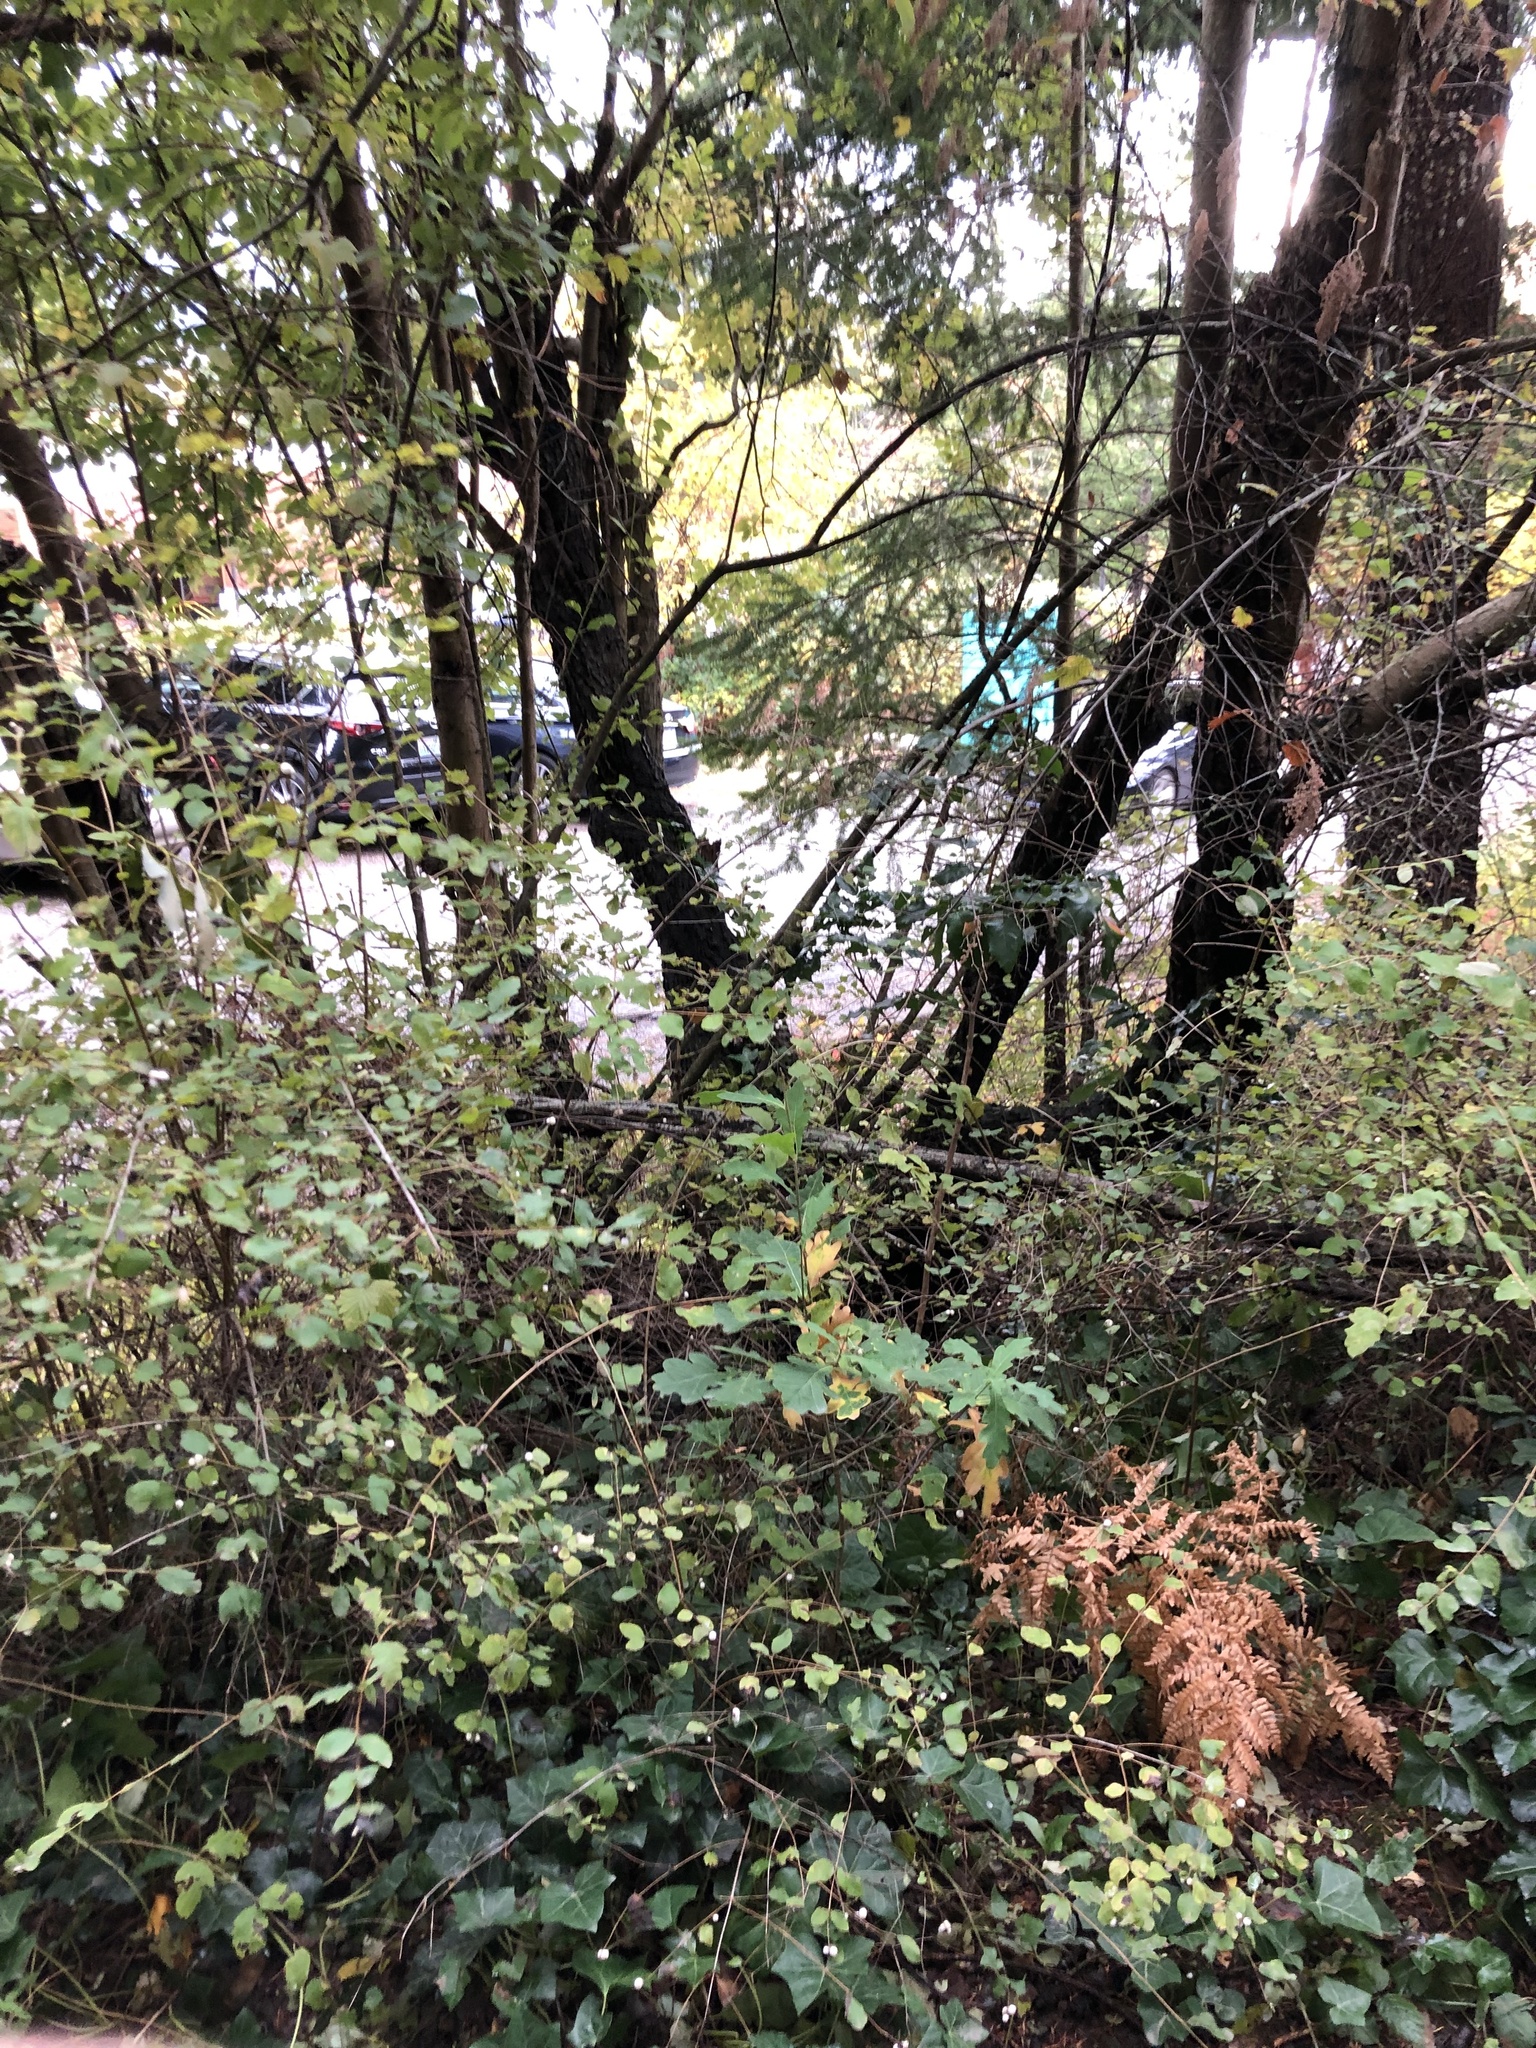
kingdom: Plantae
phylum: Tracheophyta
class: Magnoliopsida
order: Fagales
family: Fagaceae
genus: Quercus
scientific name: Quercus robur
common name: Pedunculate oak
